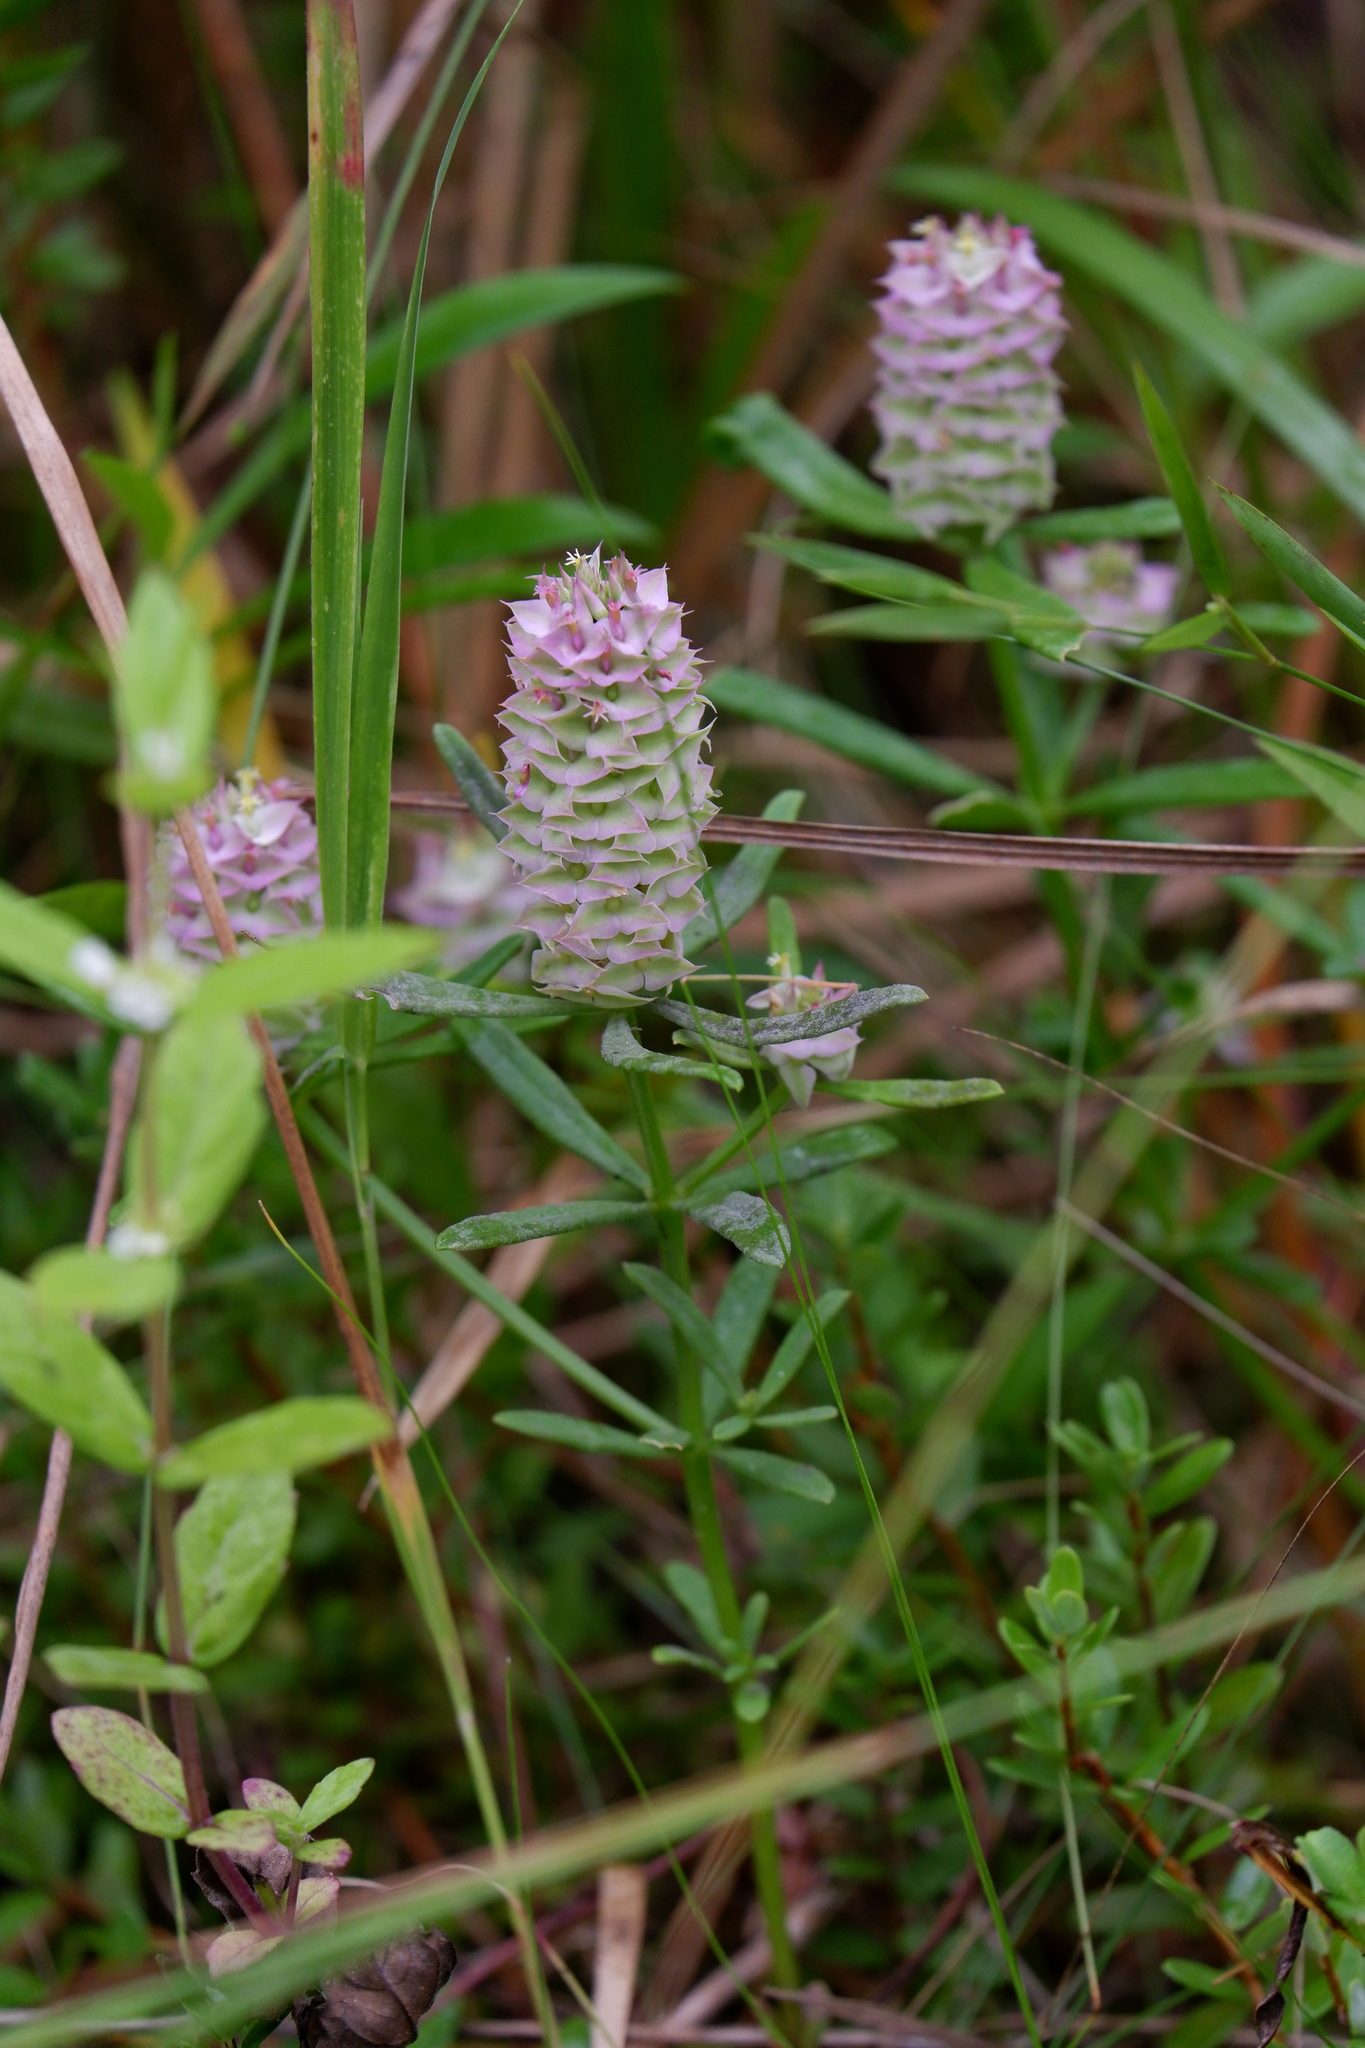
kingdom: Plantae
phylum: Tracheophyta
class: Magnoliopsida
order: Fabales
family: Polygalaceae
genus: Polygala
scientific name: Polygala cruciata
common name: Drumheads
